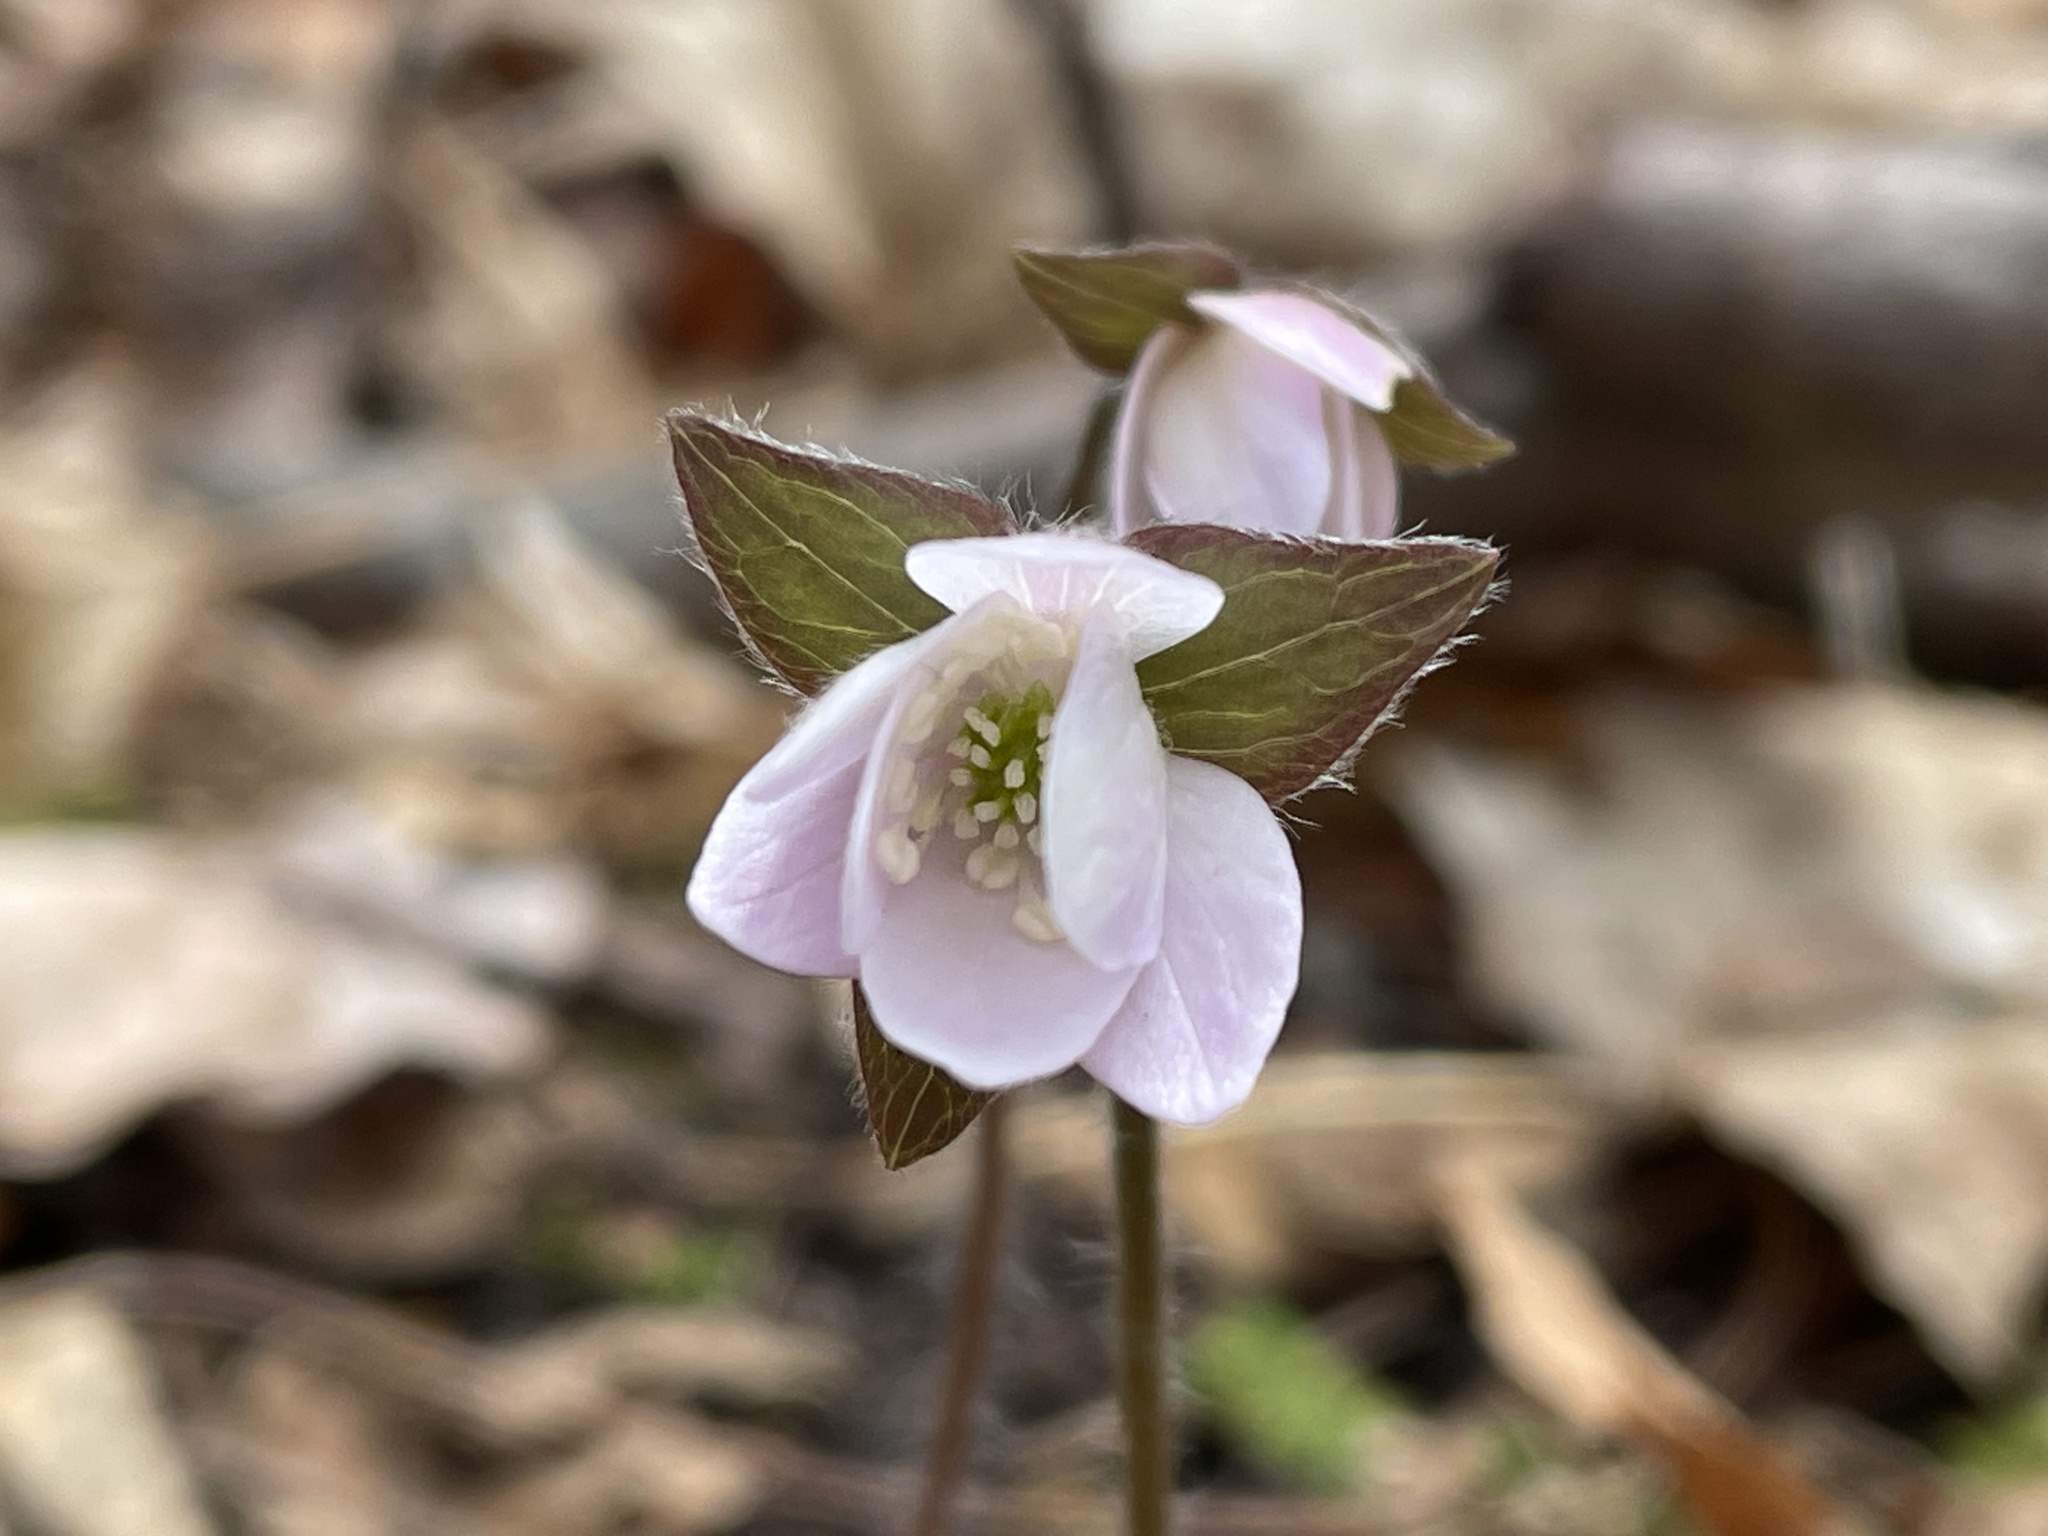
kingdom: Plantae
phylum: Tracheophyta
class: Magnoliopsida
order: Ranunculales
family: Ranunculaceae
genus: Hepatica
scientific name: Hepatica acutiloba
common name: Sharp-lobed hepatica
